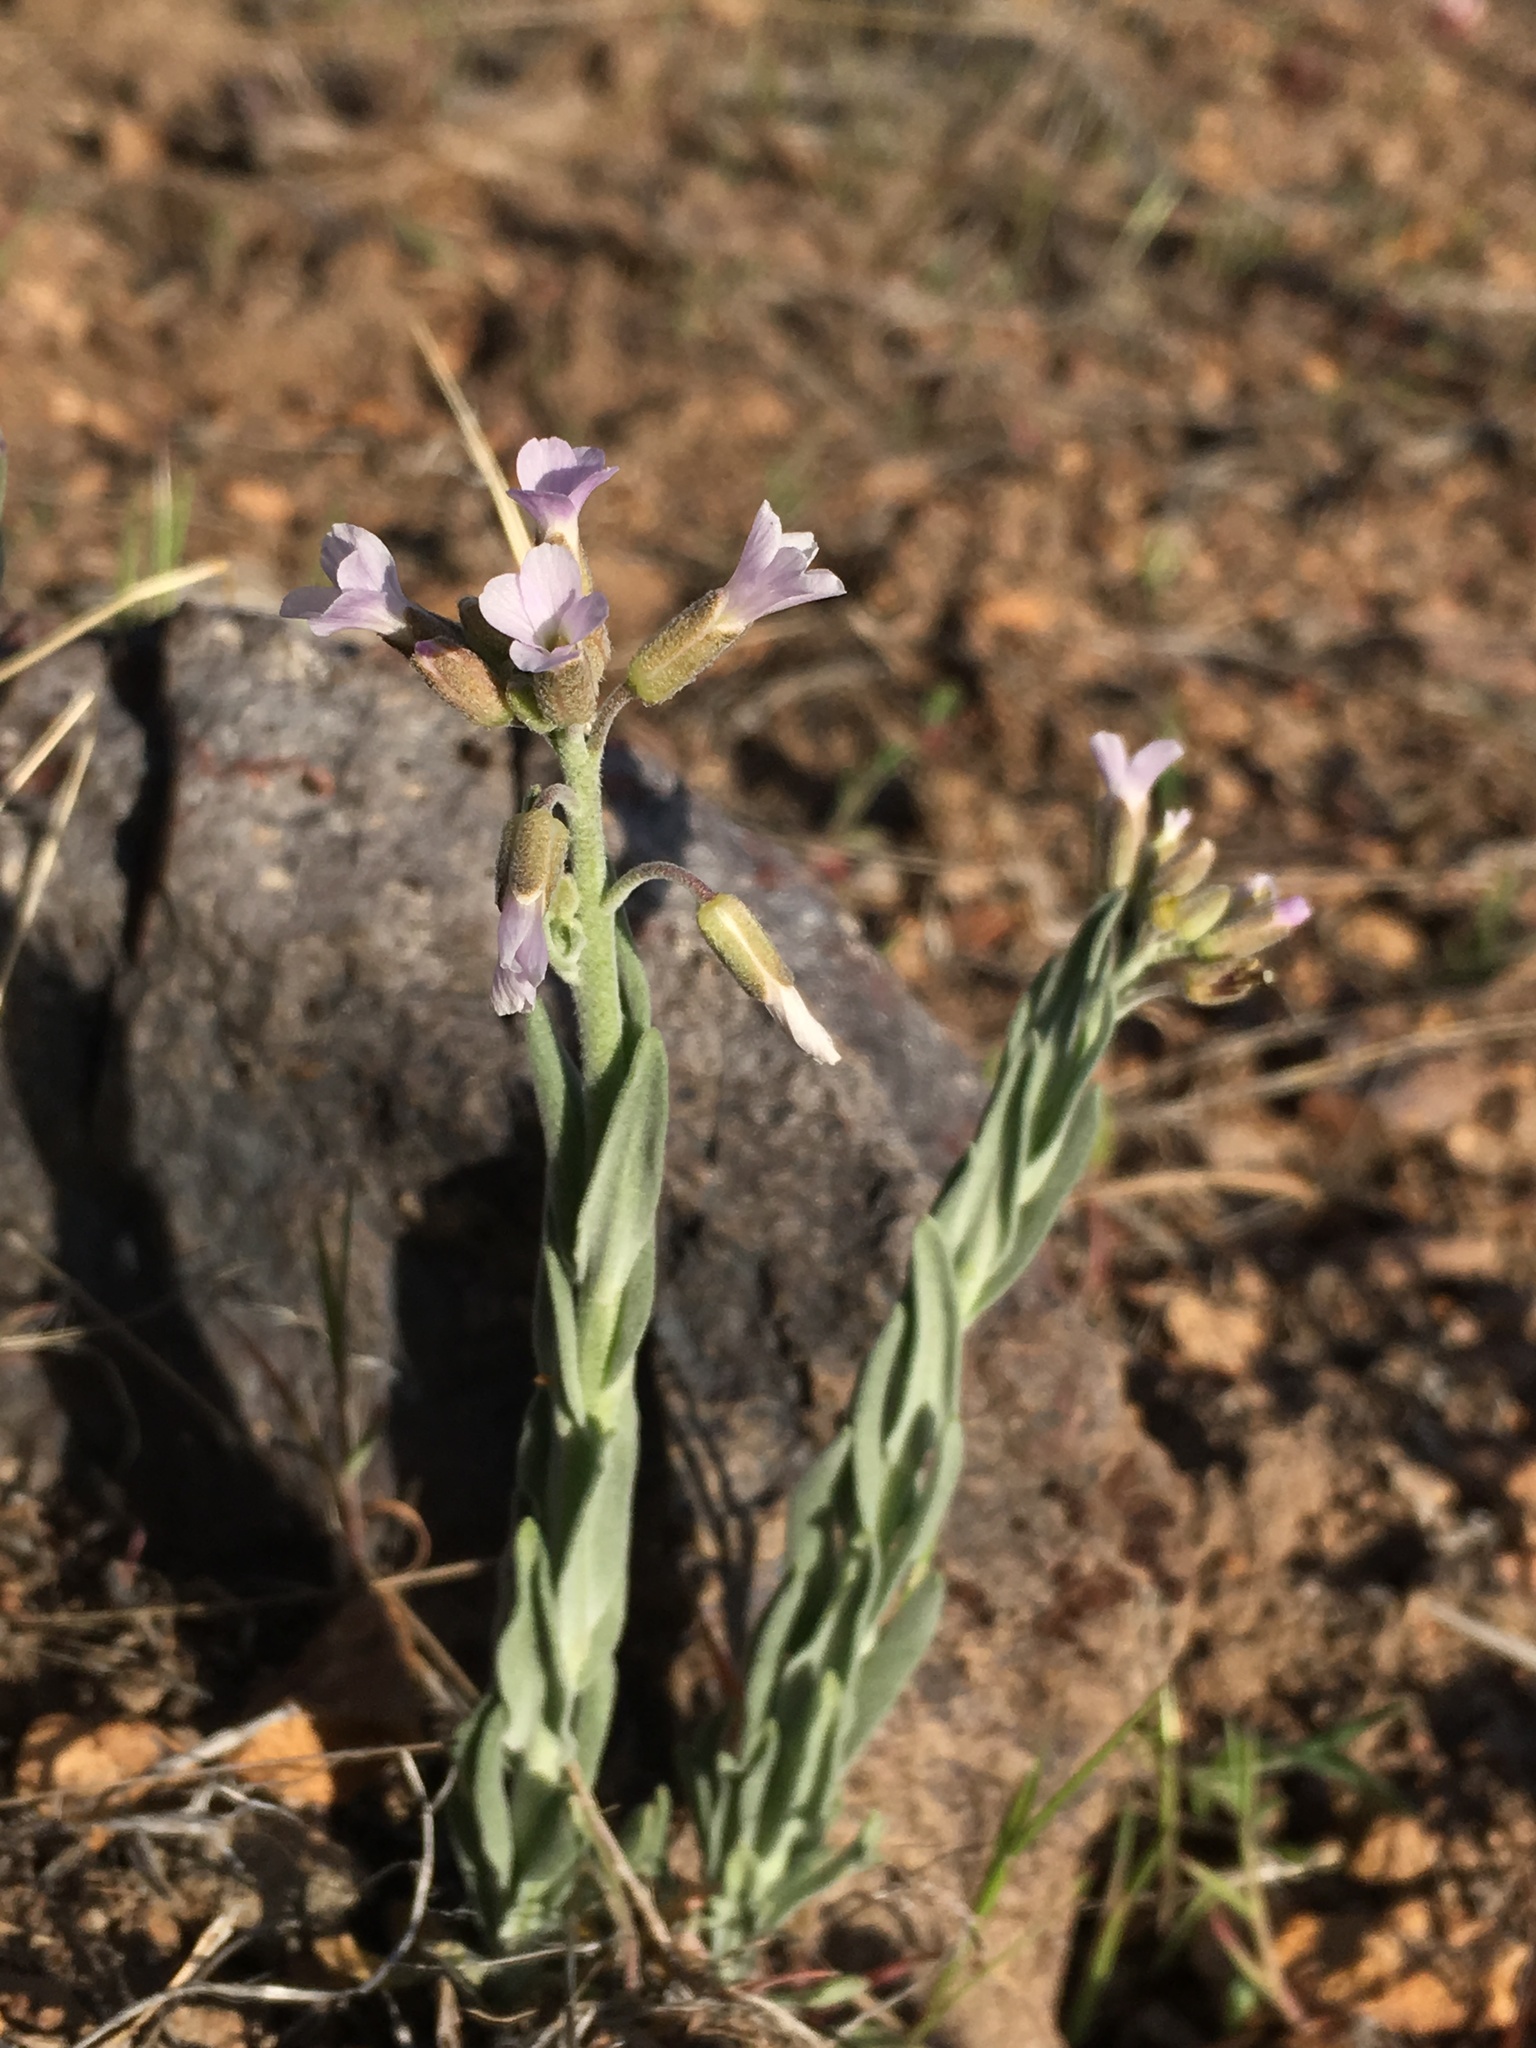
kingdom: Plantae
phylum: Tracheophyta
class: Magnoliopsida
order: Brassicales
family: Brassicaceae
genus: Boechera
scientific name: Boechera puberula
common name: Puberulent rockcress
